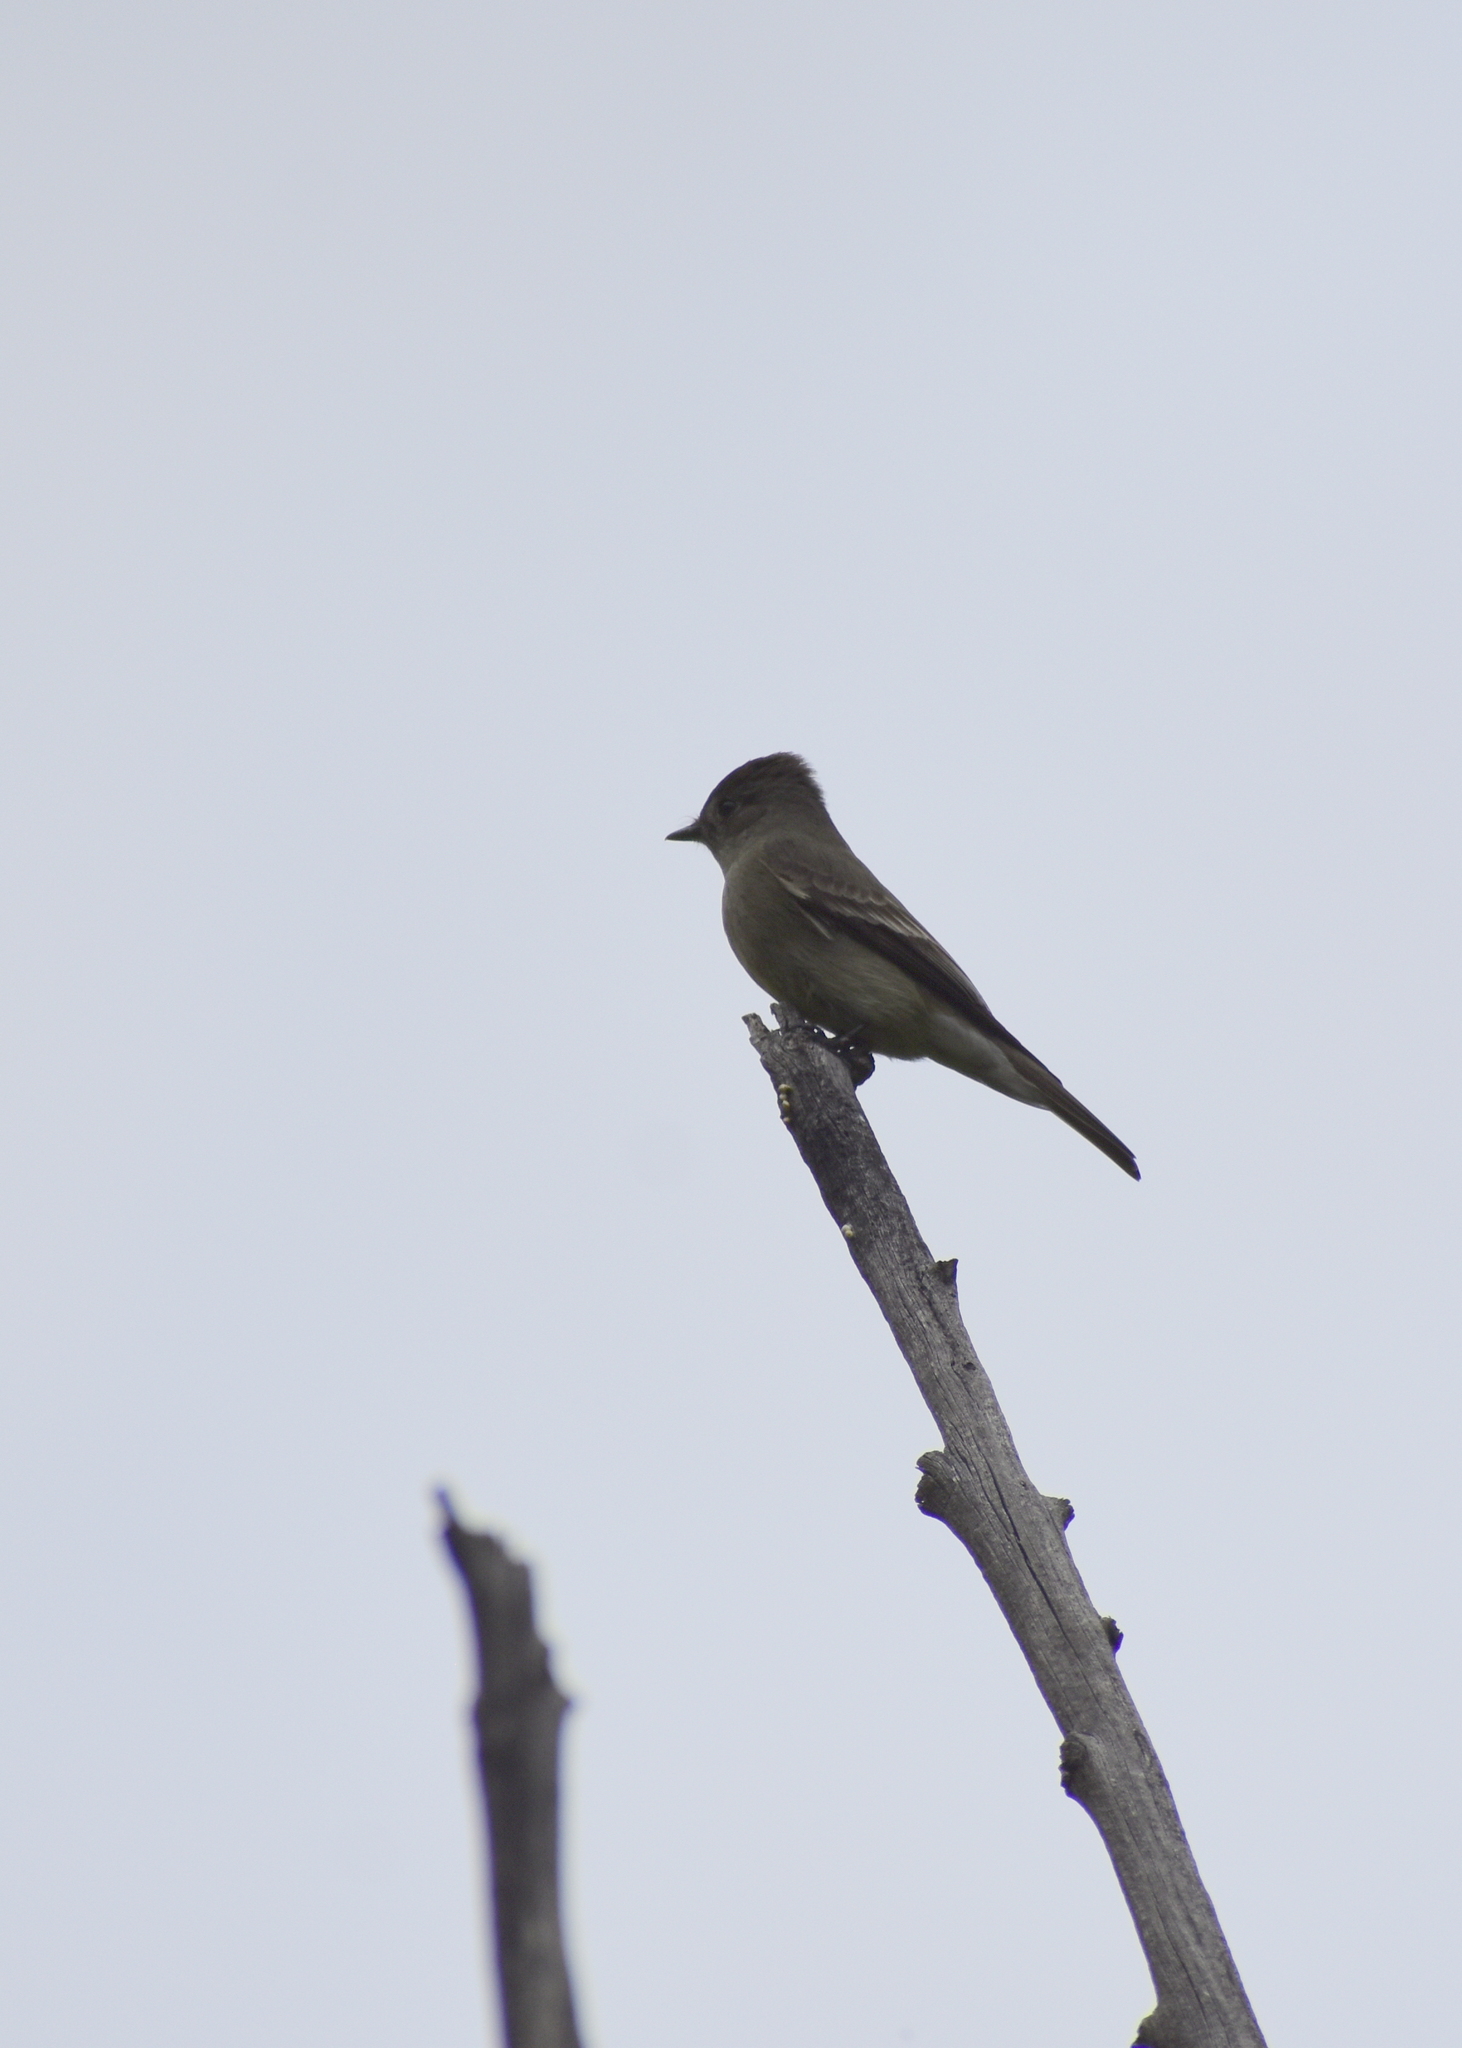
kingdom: Animalia
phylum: Chordata
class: Aves
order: Passeriformes
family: Tyrannidae
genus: Contopus
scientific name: Contopus sordidulus
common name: Western wood-pewee
